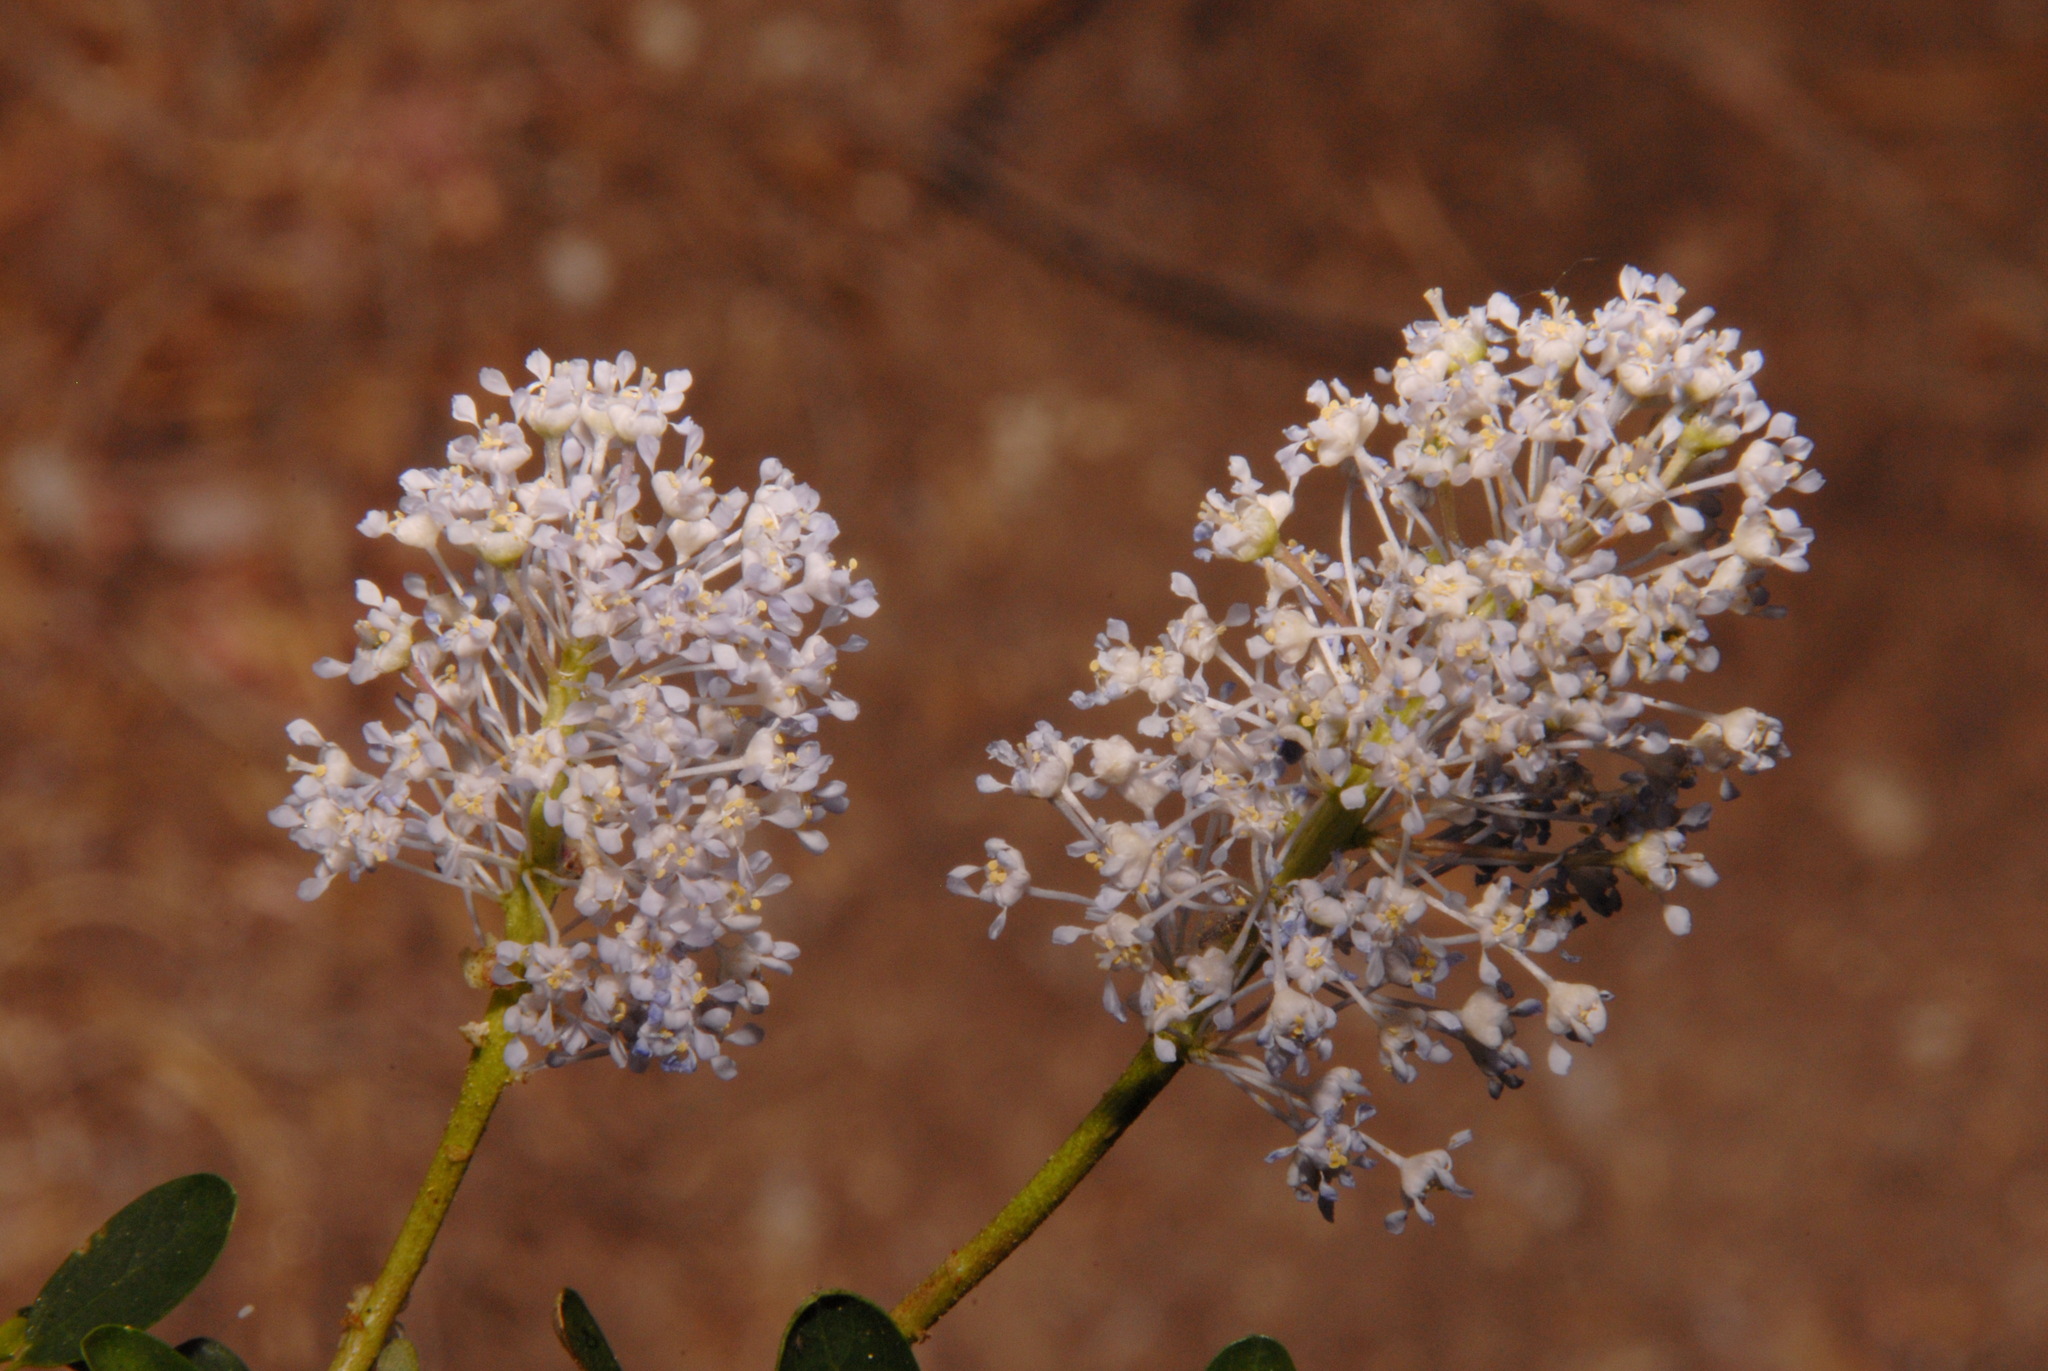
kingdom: Plantae
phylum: Tracheophyta
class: Magnoliopsida
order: Rosales
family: Rhamnaceae
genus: Ceanothus
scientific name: Ceanothus parvifolius
